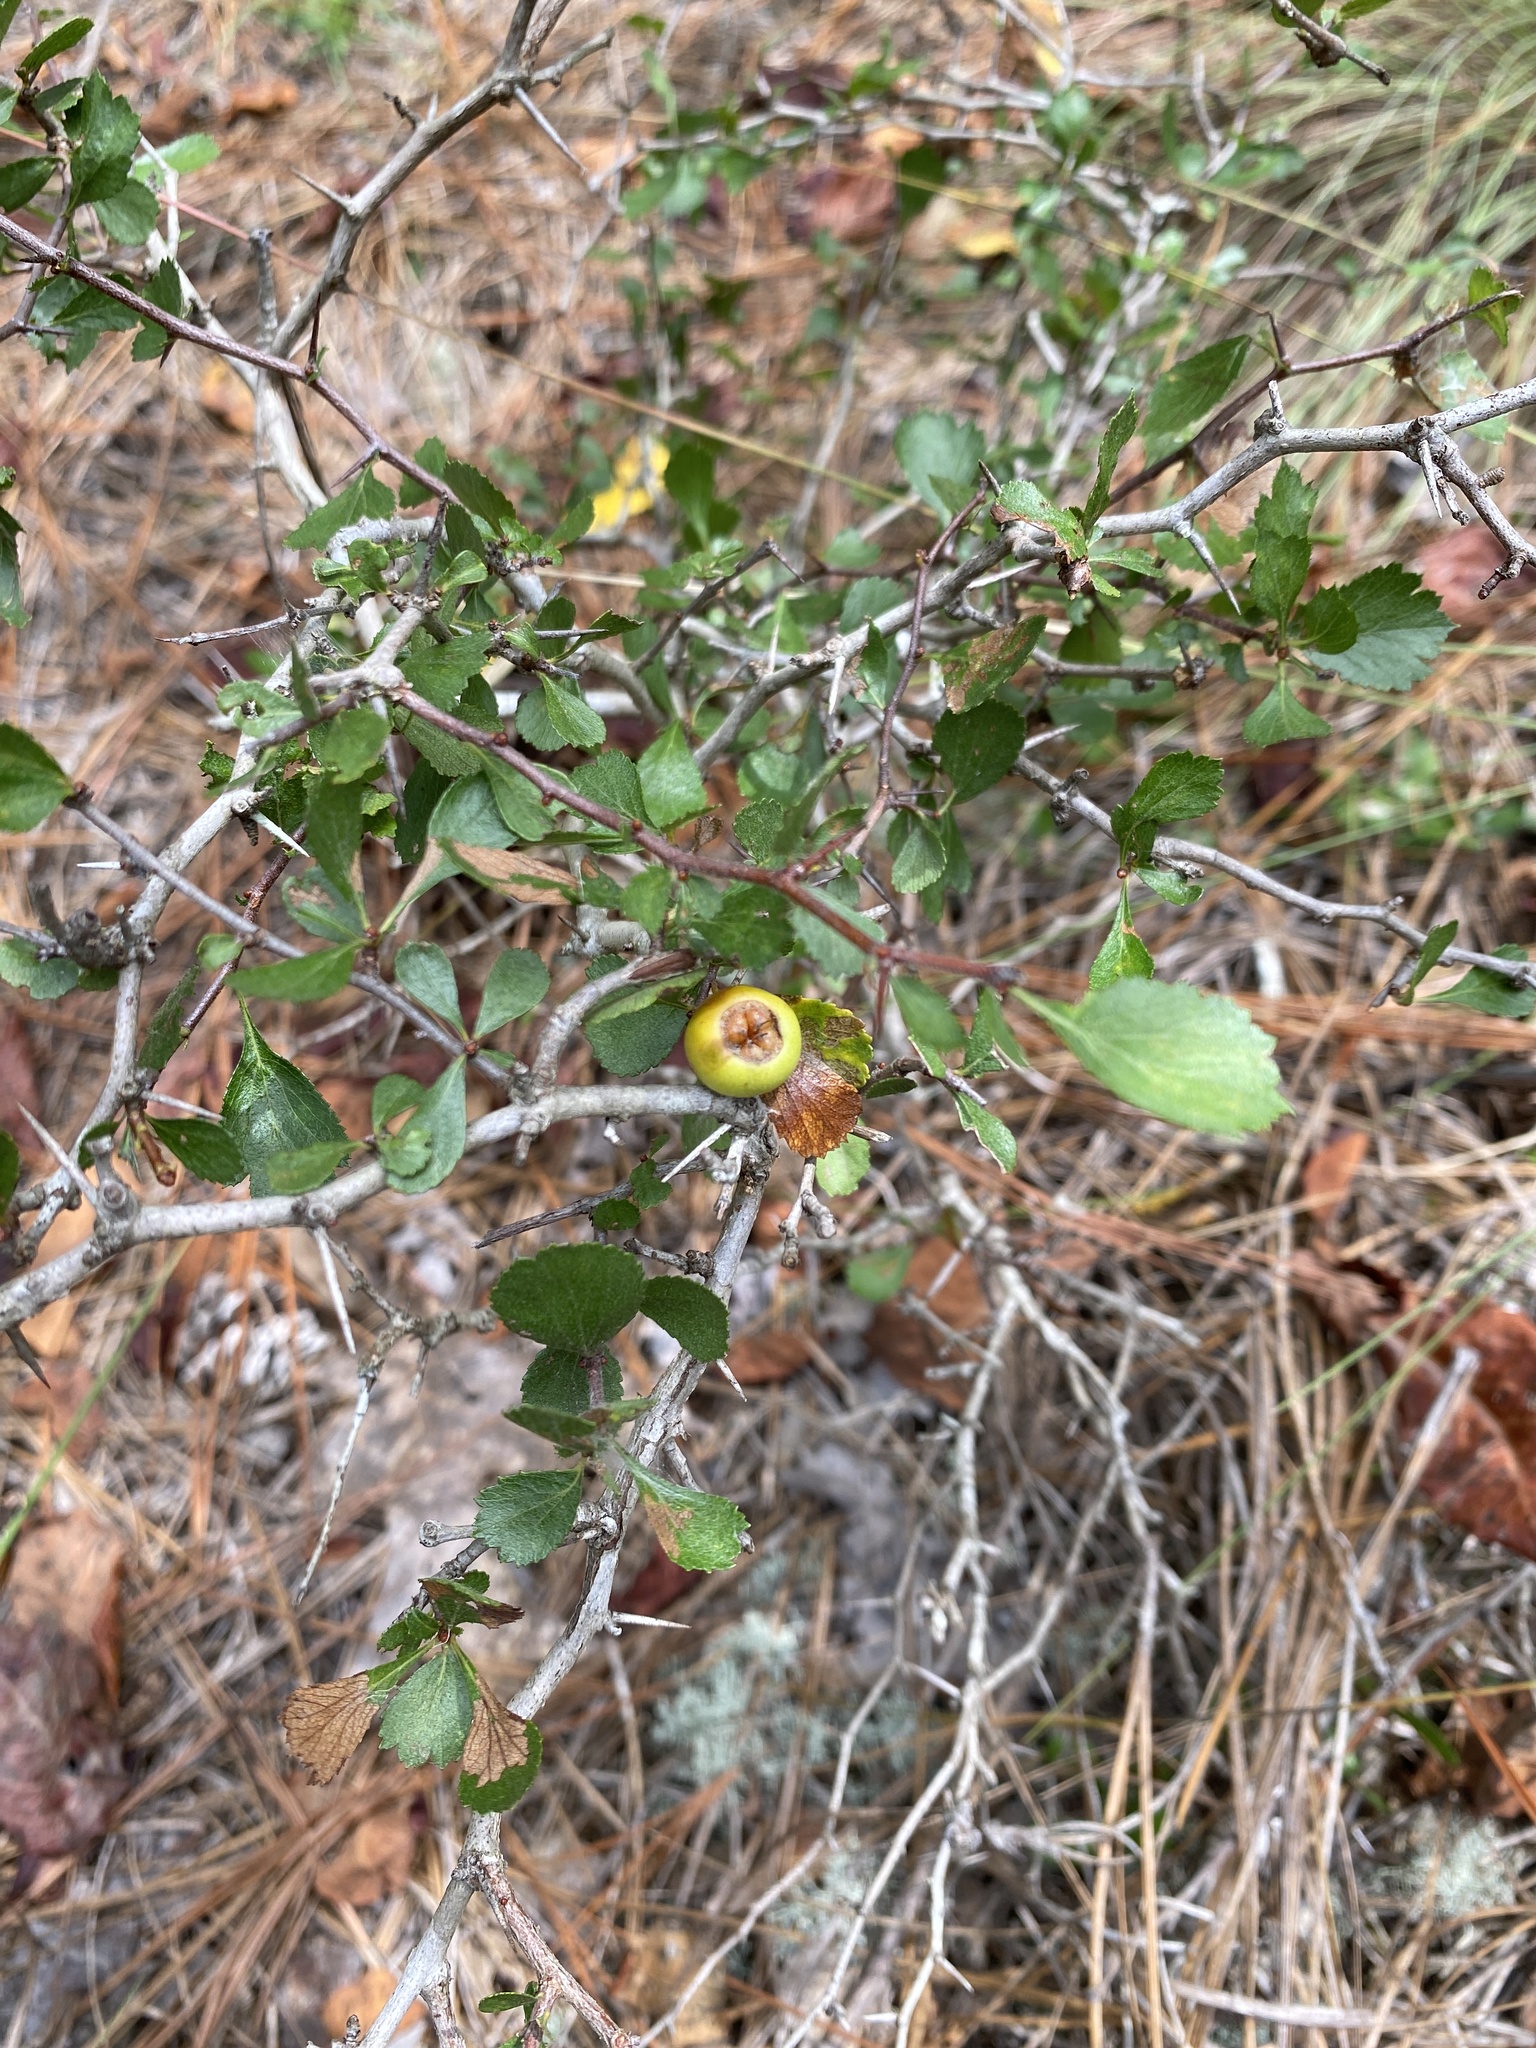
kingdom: Plantae
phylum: Tracheophyta
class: Magnoliopsida
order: Rosales
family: Rosaceae
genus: Crataegus
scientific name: Crataegus munda
